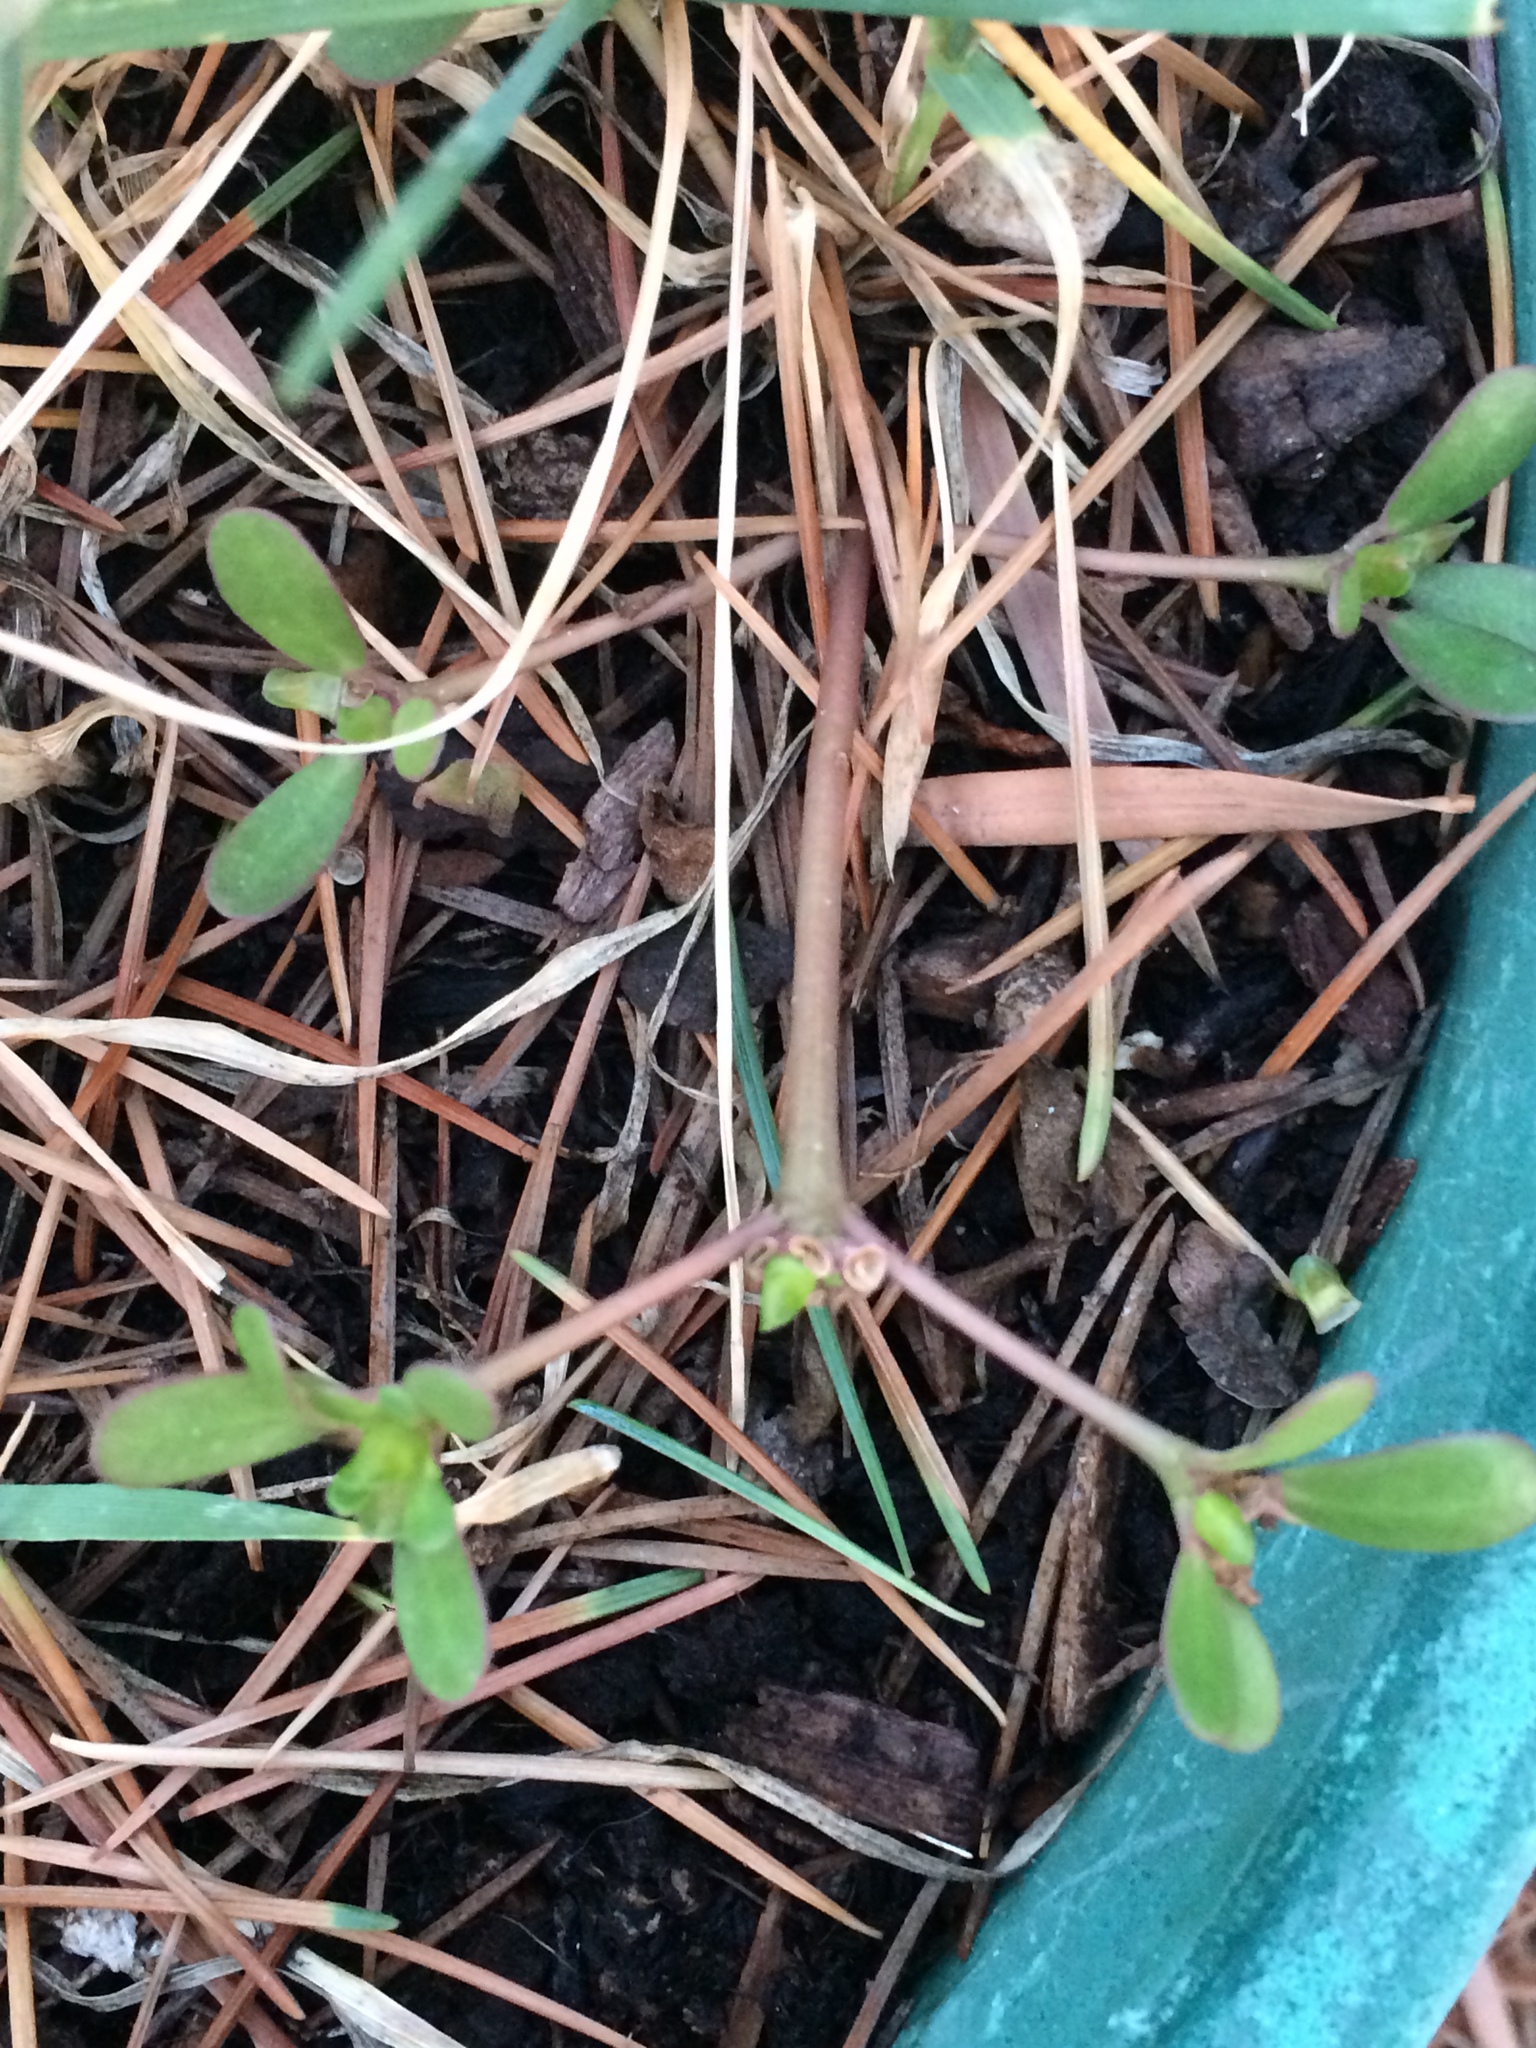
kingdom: Plantae
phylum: Tracheophyta
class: Magnoliopsida
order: Caryophyllales
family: Portulacaceae
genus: Portulaca
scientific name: Portulaca oleracea
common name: Common purslane
